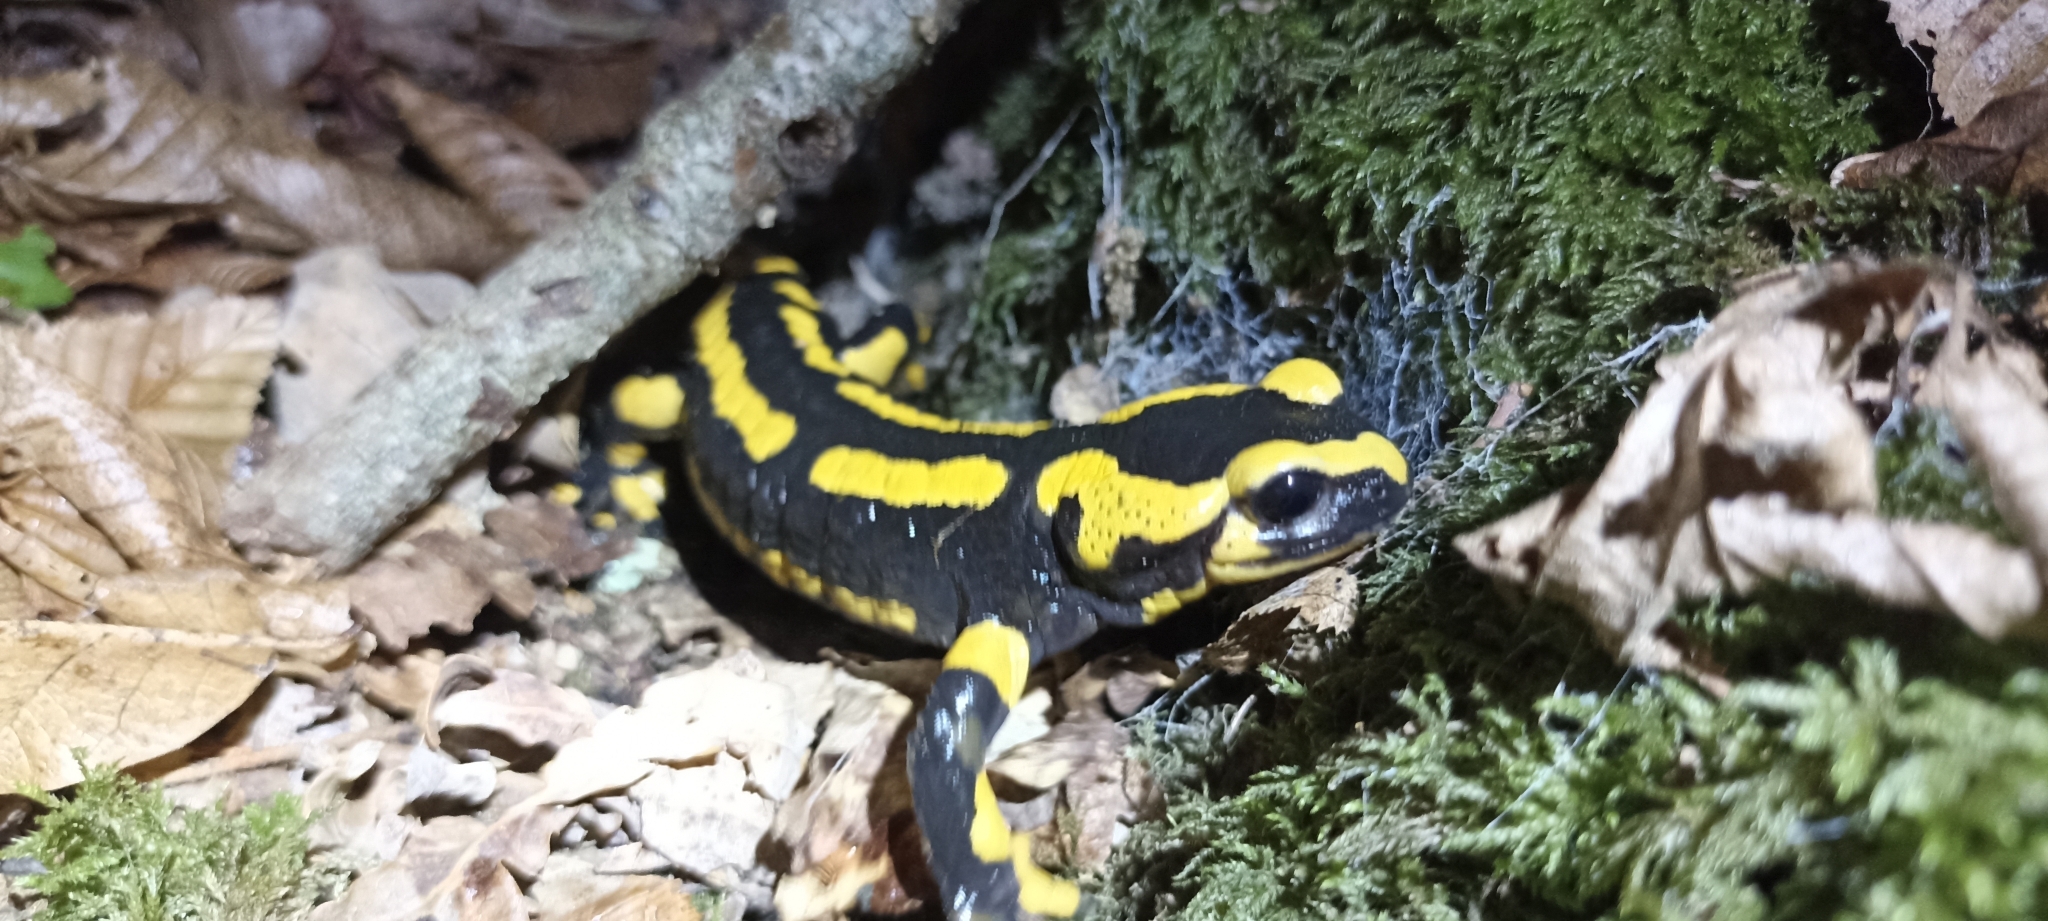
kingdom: Animalia
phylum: Chordata
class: Amphibia
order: Caudata
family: Salamandridae
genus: Salamandra
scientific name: Salamandra salamandra
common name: Fire salamander
